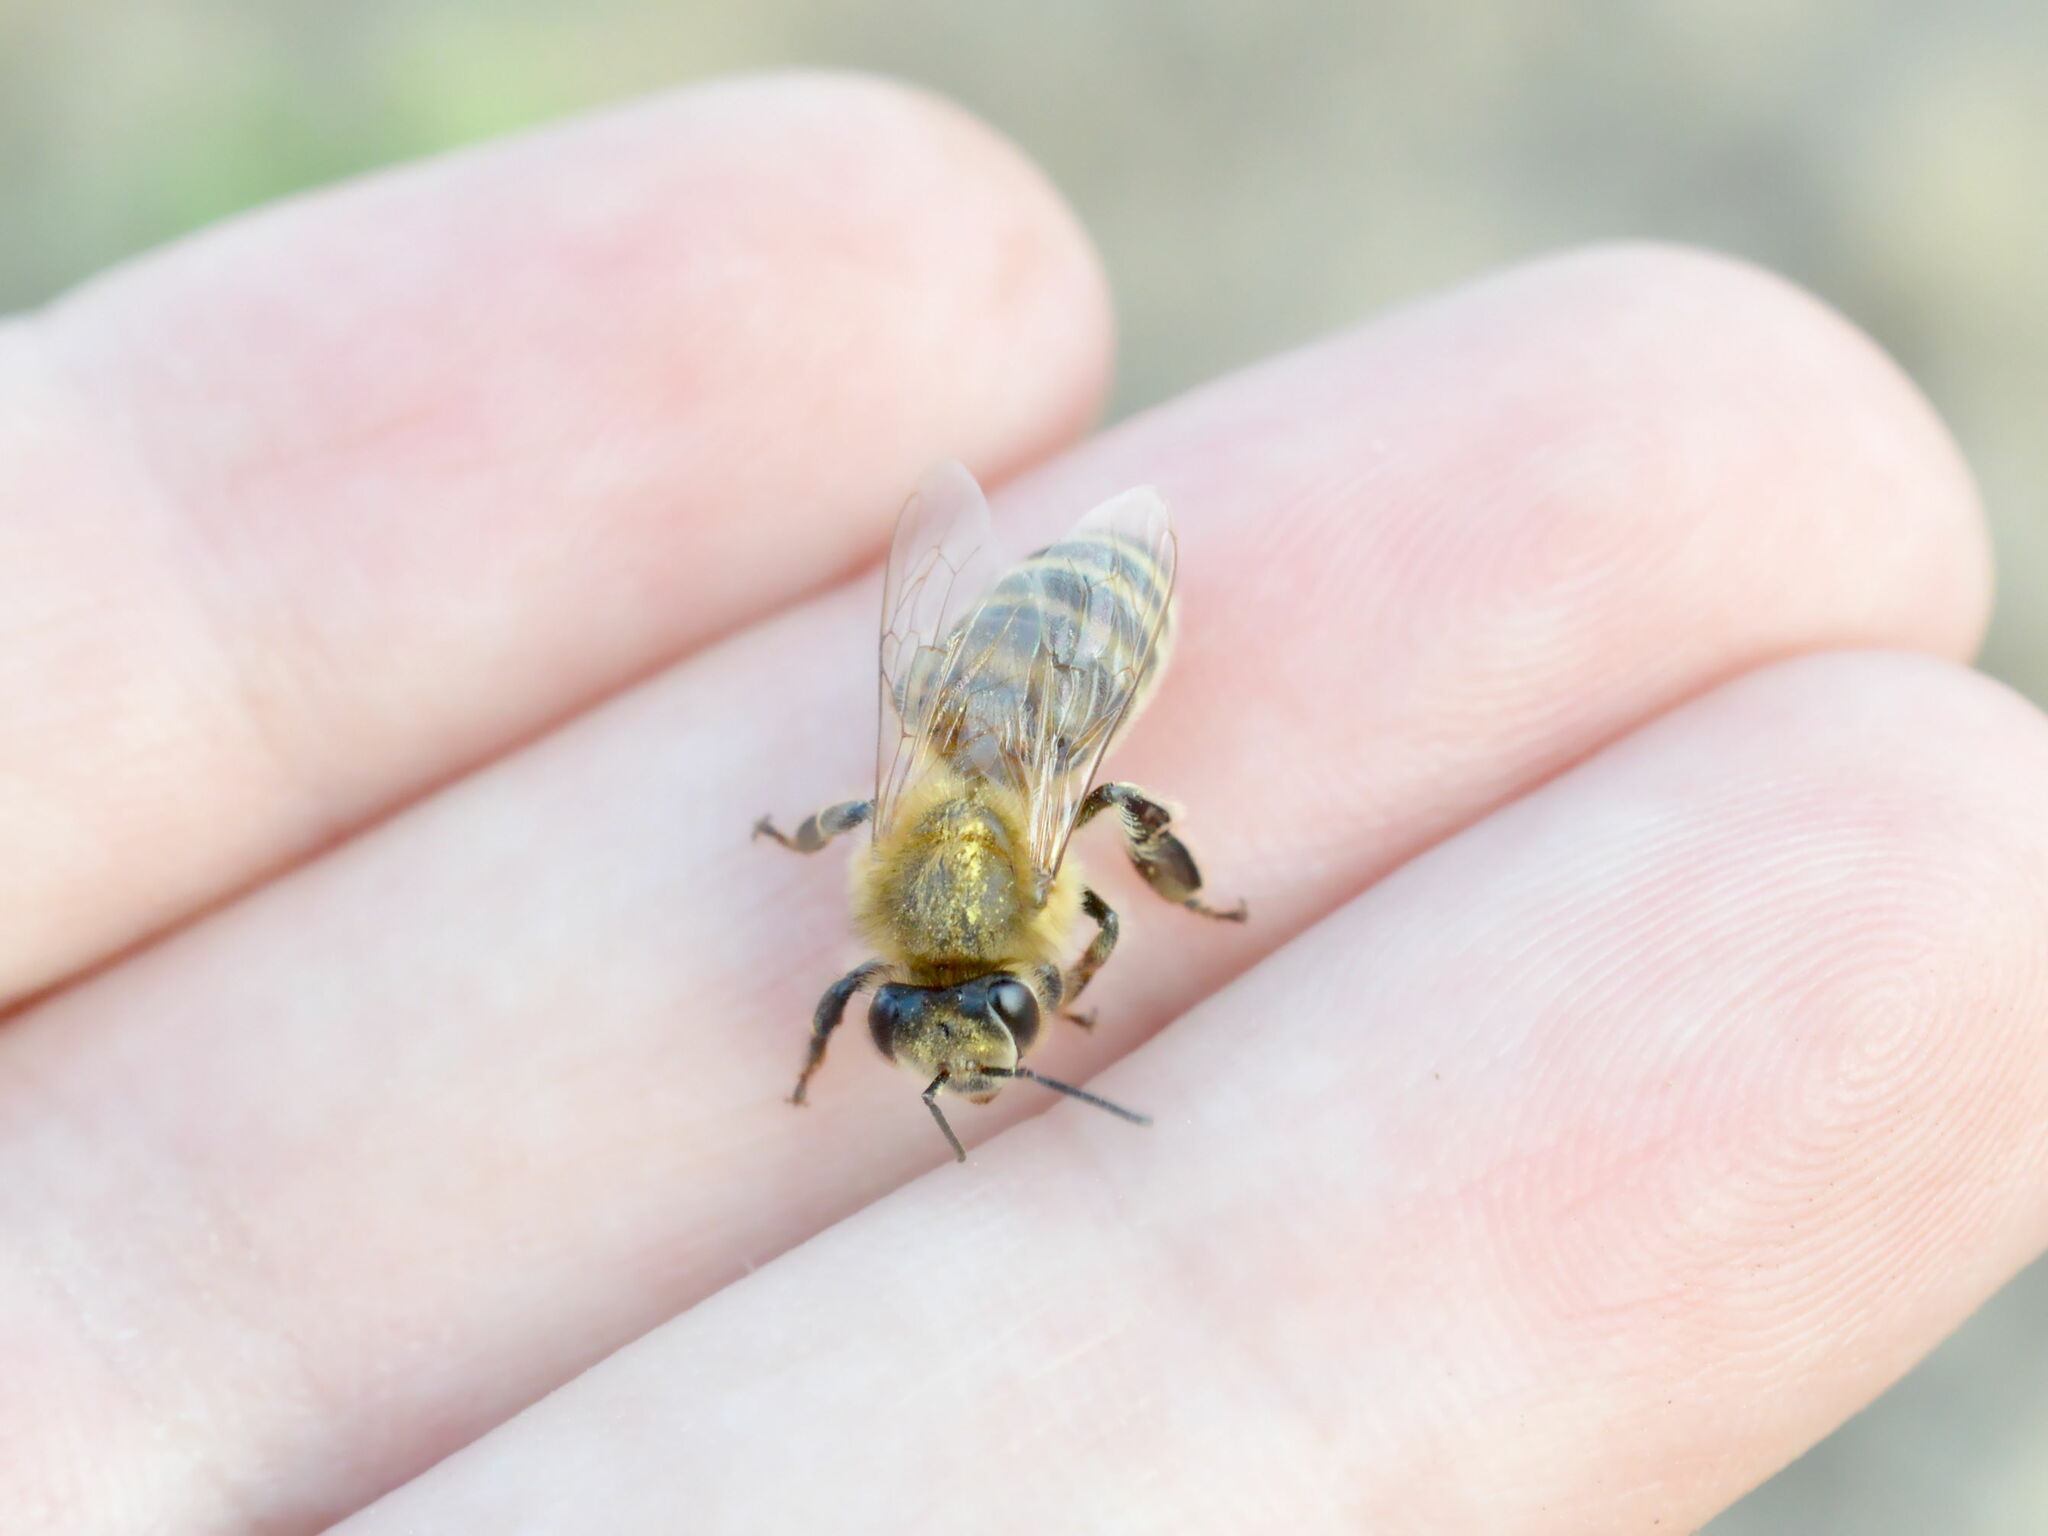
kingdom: Animalia
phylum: Arthropoda
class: Insecta
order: Hymenoptera
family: Apidae
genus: Apis
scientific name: Apis mellifera
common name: Honey bee
